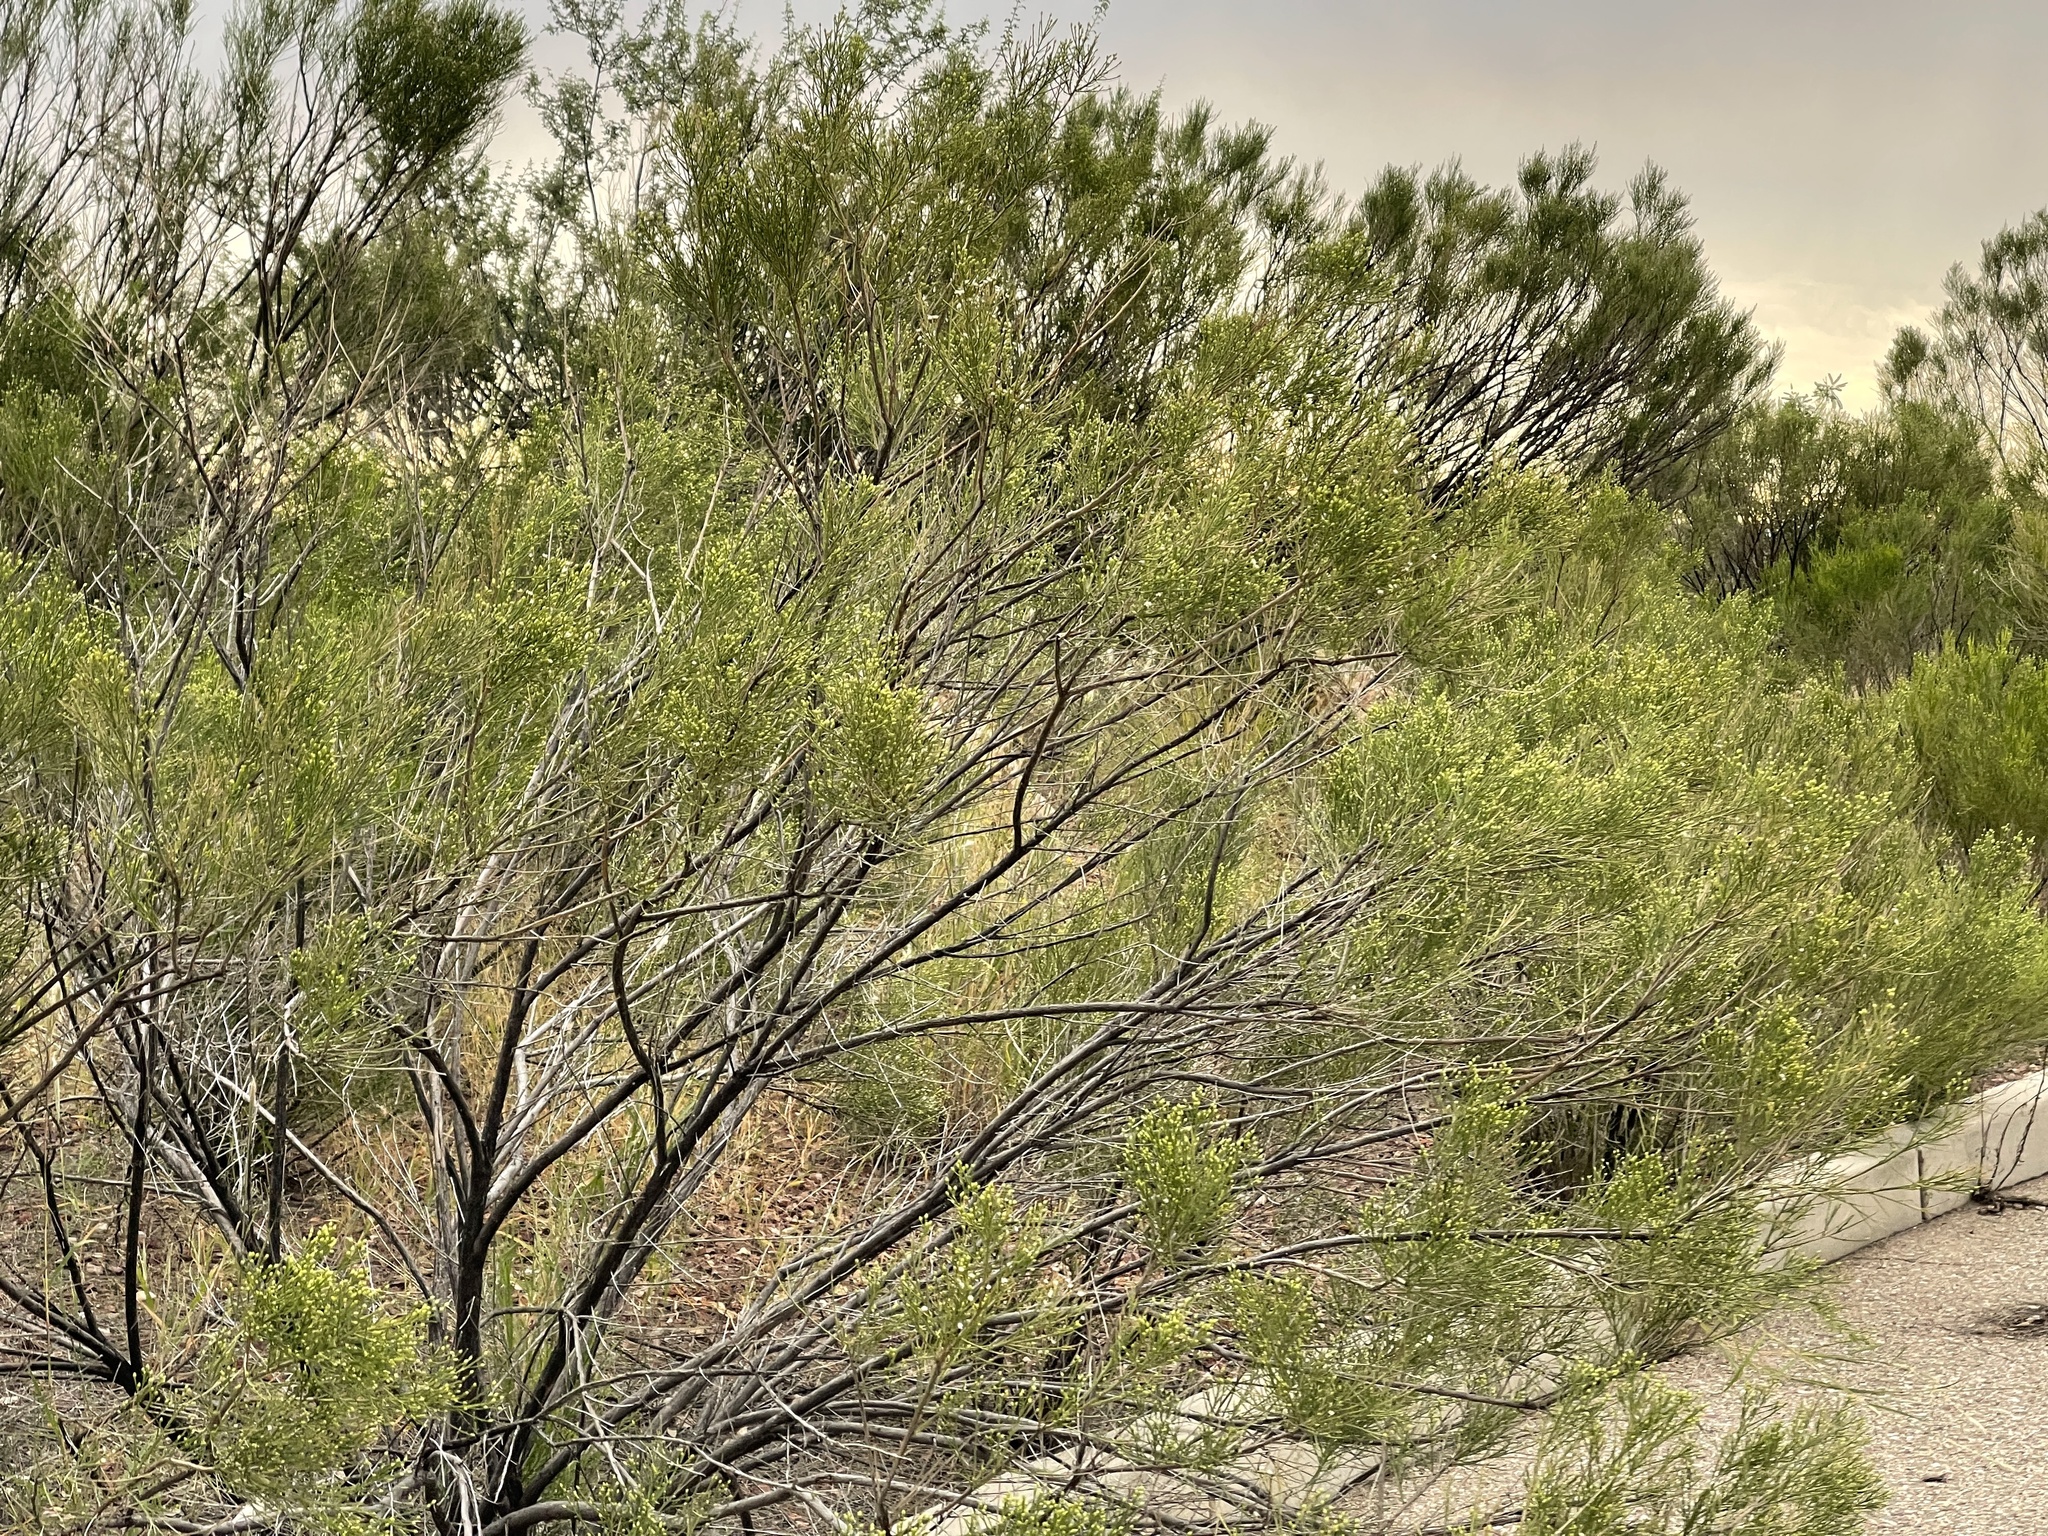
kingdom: Plantae
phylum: Tracheophyta
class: Magnoliopsida
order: Asterales
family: Asteraceae
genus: Baccharis
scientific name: Baccharis sarothroides
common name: Desert-broom
